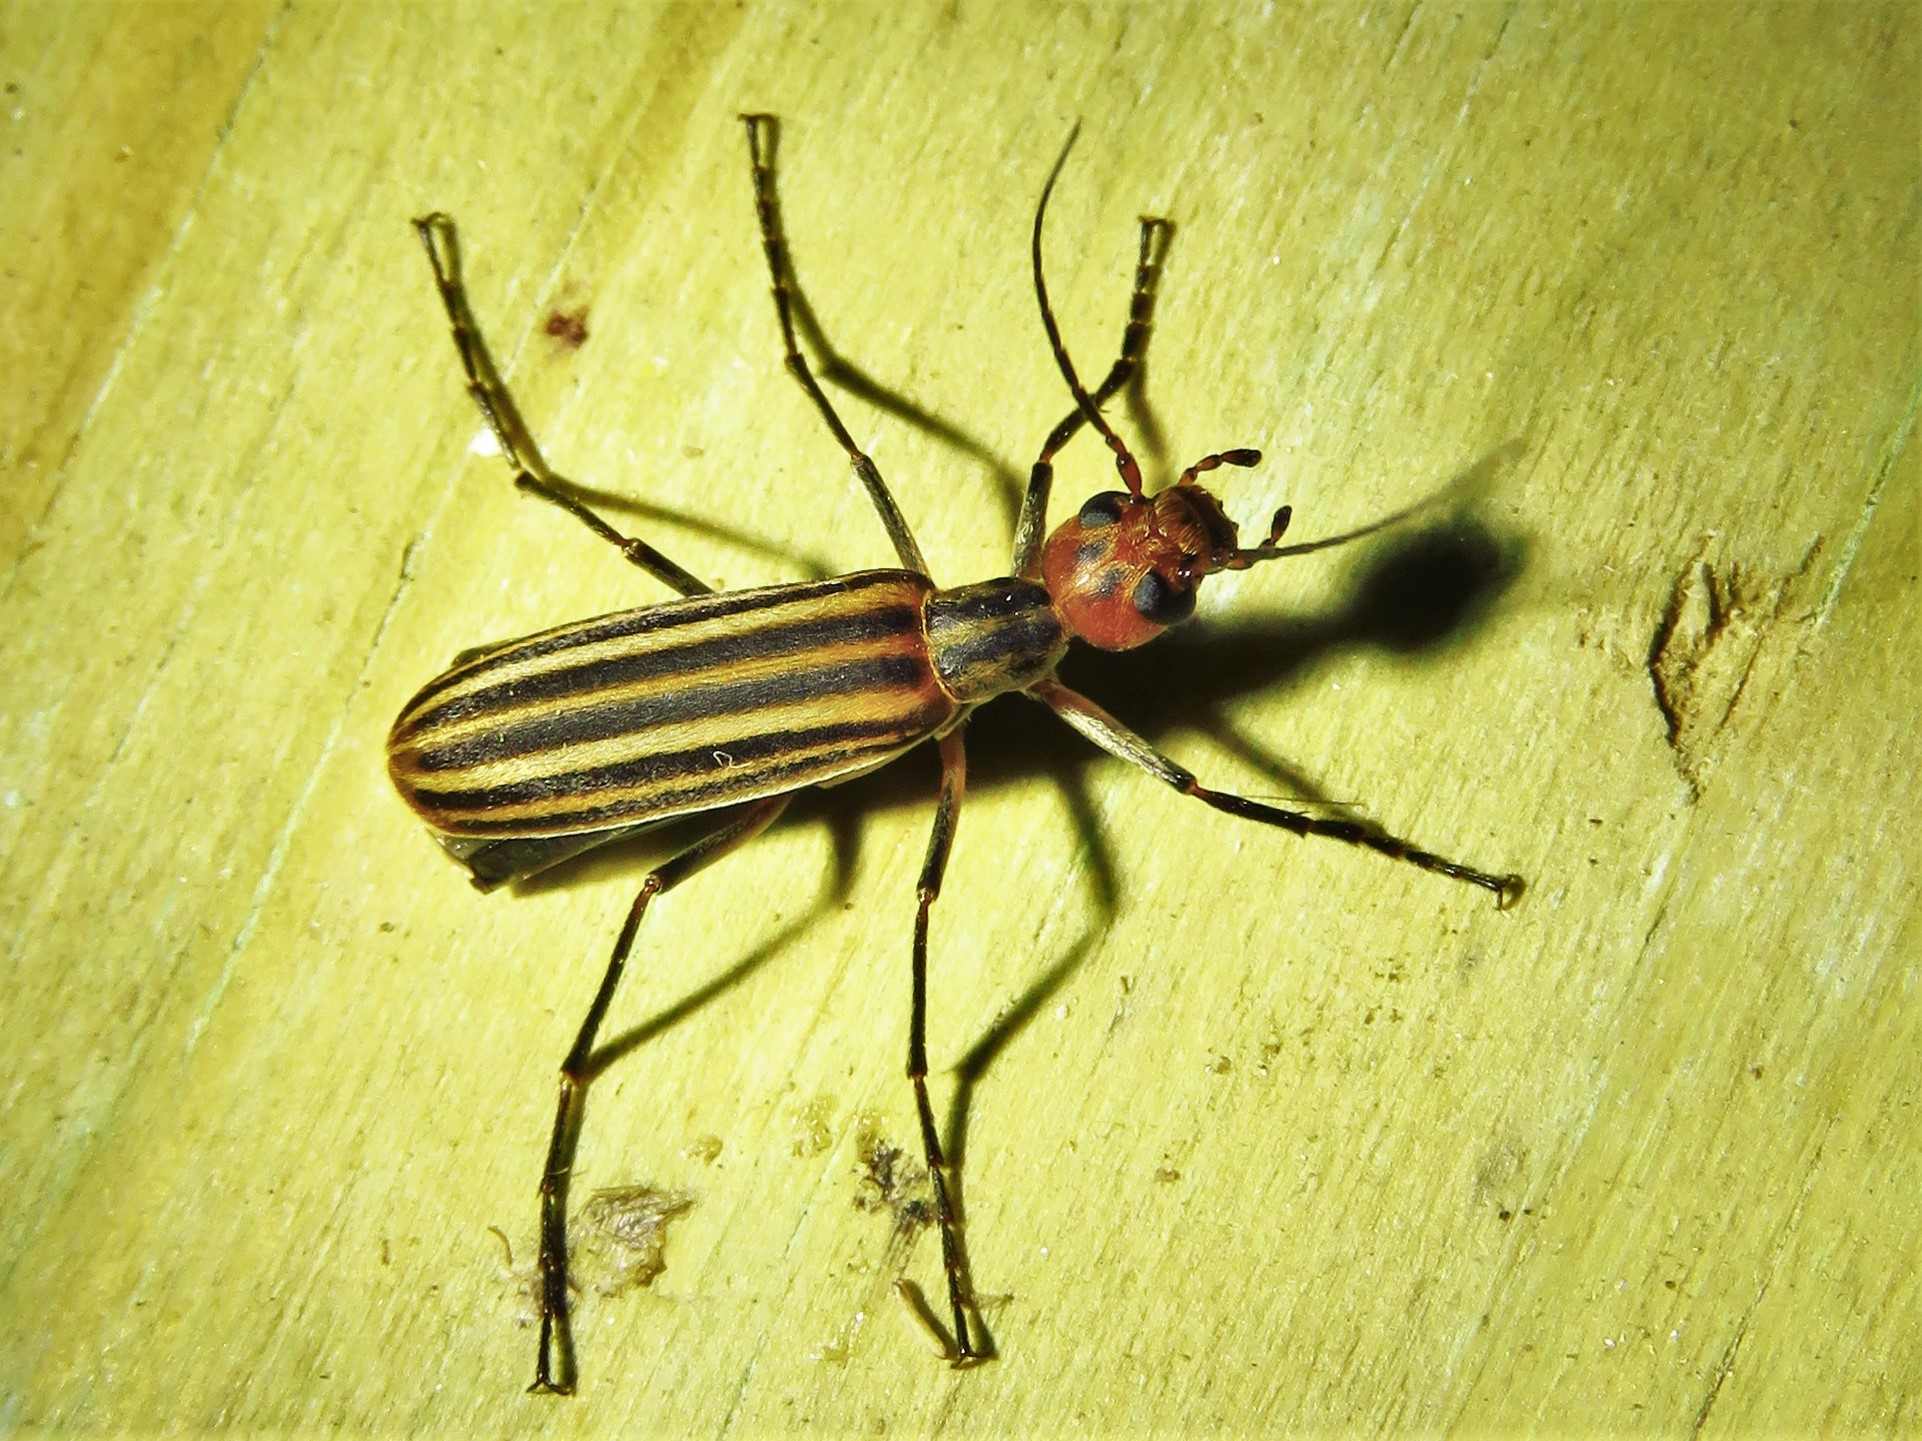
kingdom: Animalia
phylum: Arthropoda
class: Insecta
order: Coleoptera
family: Meloidae
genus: Epicauta
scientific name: Epicauta vittata
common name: Old-fashioned potato beetle
